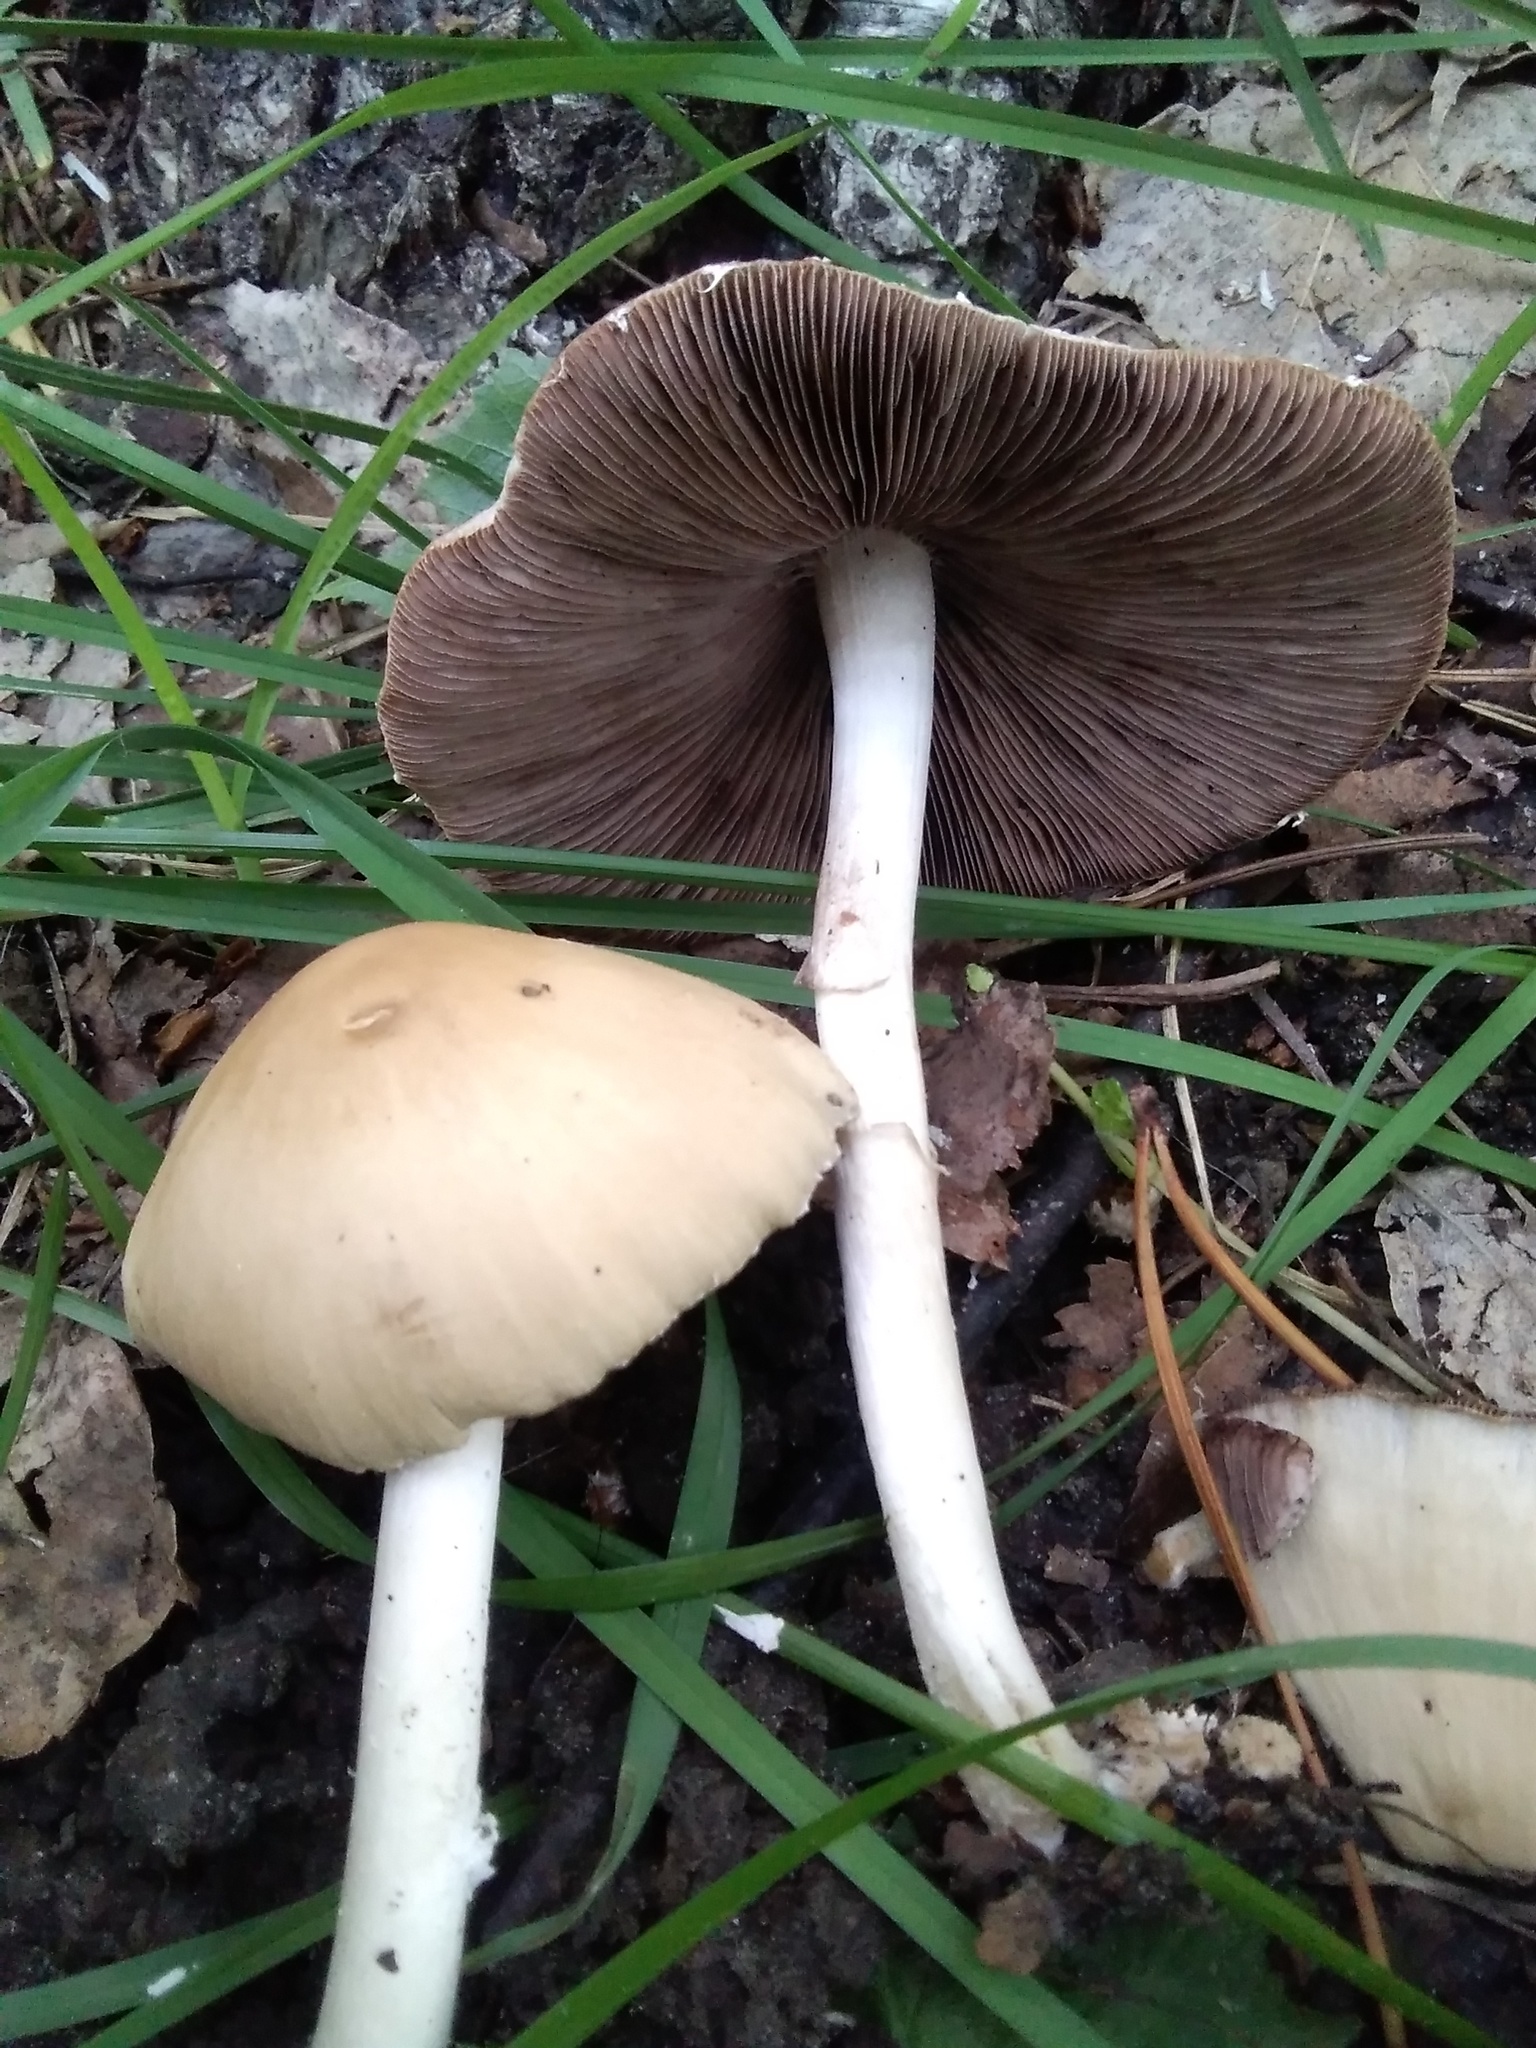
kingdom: Fungi
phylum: Basidiomycota
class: Agaricomycetes
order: Agaricales
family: Psathyrellaceae
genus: Candolleomyces
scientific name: Candolleomyces candolleanus
